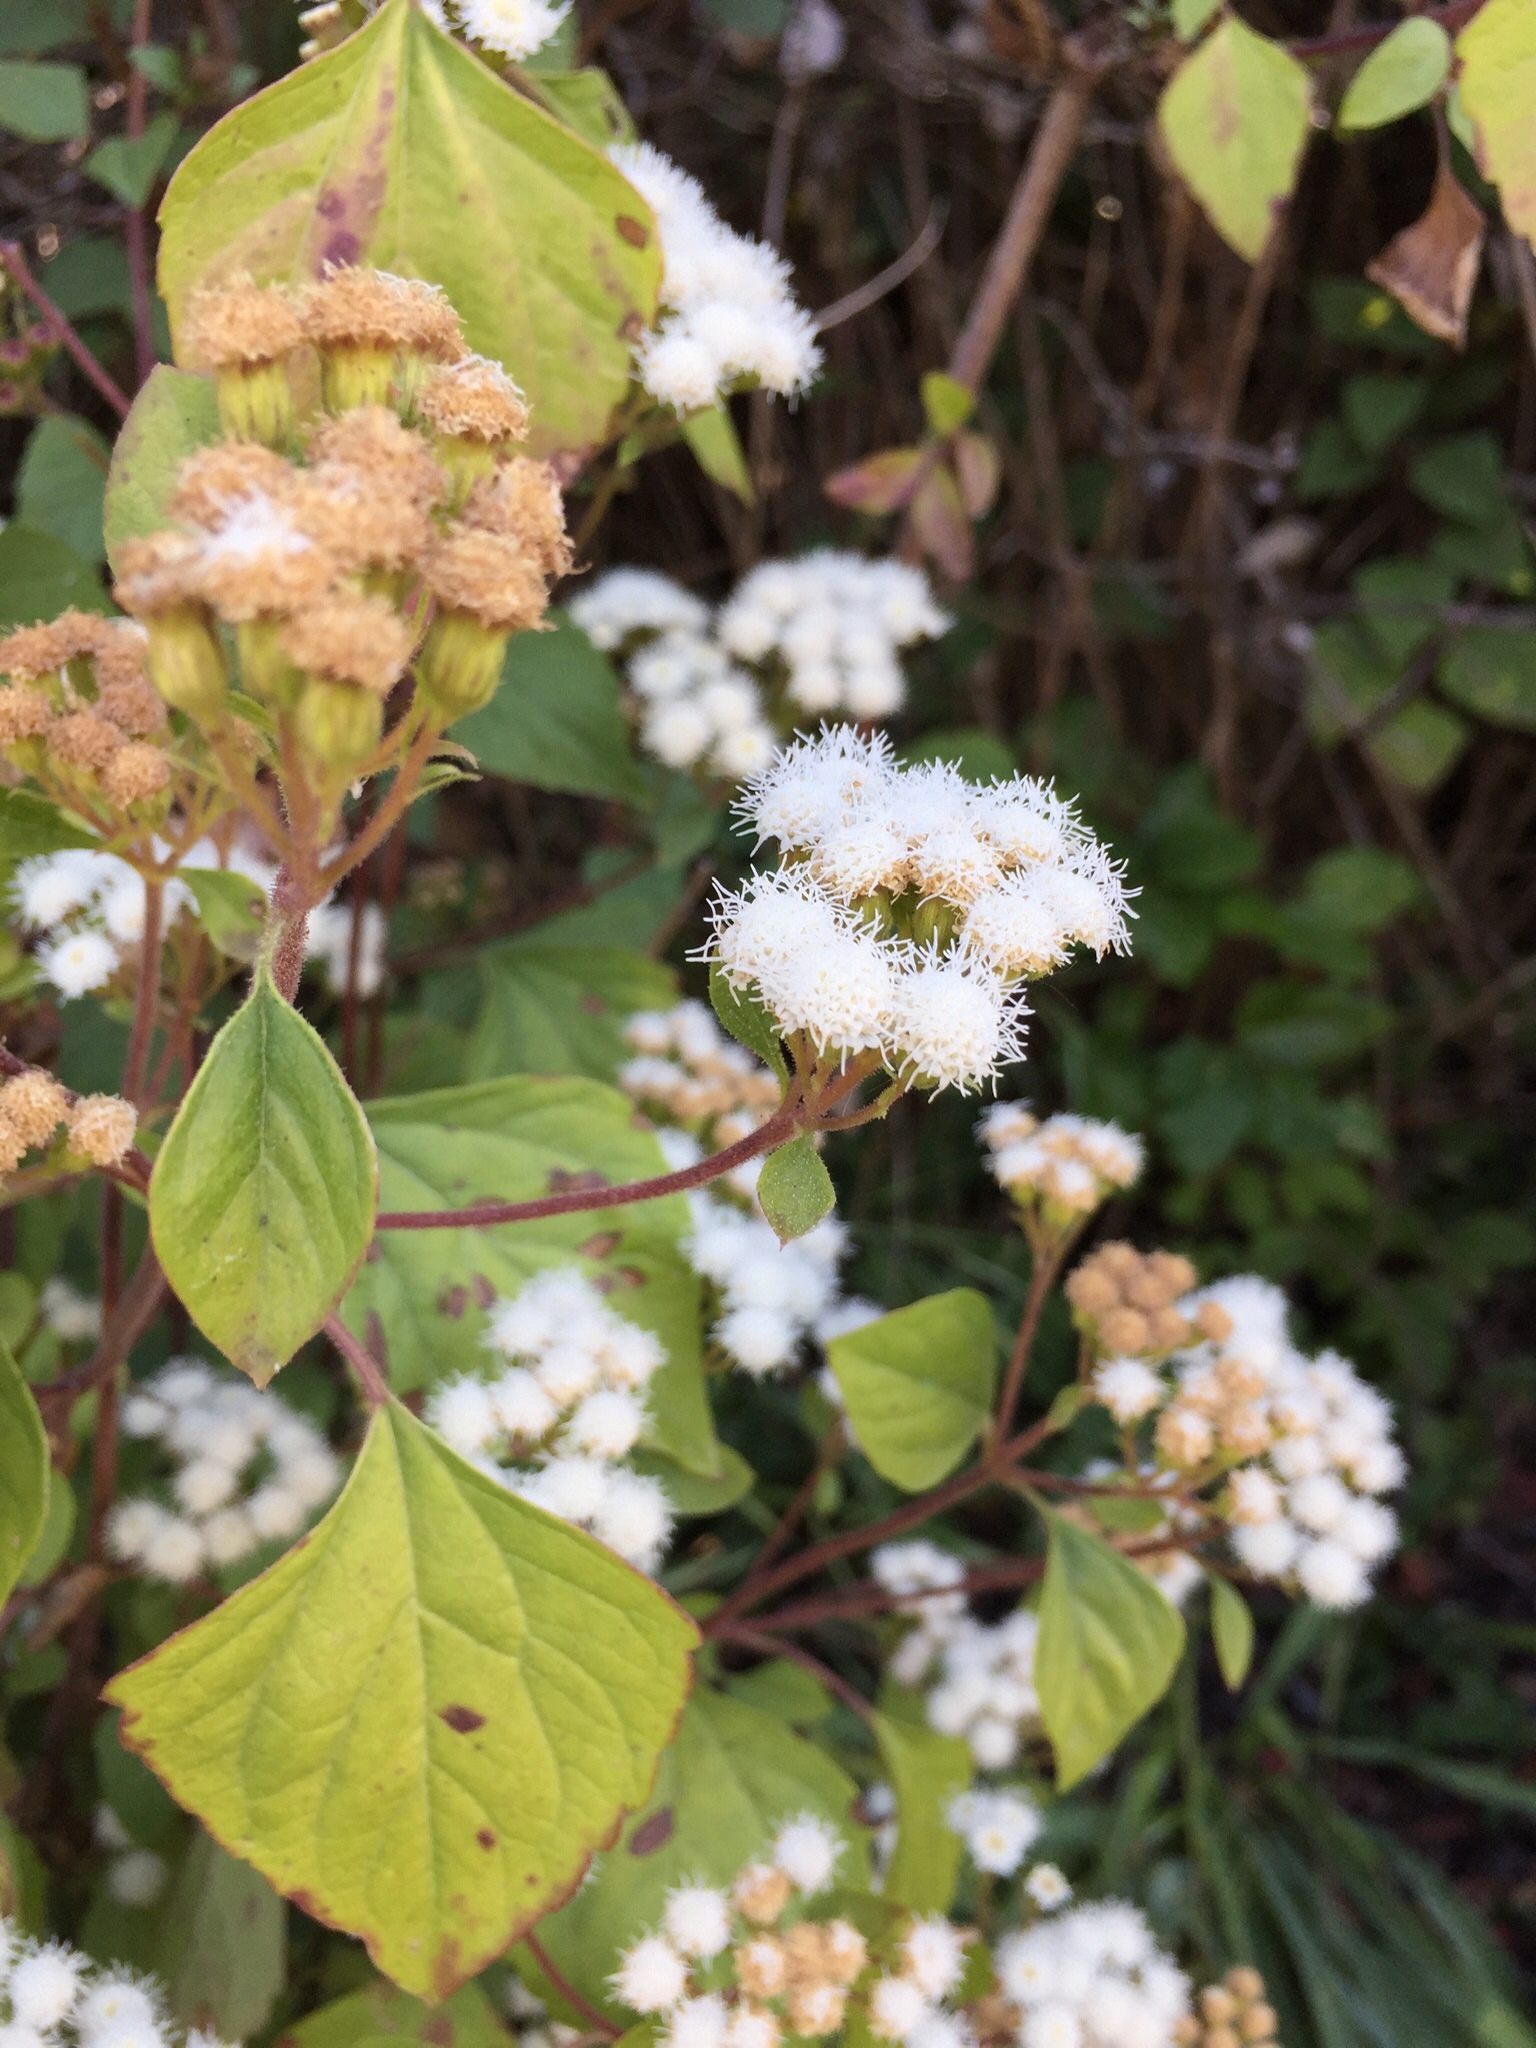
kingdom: Plantae
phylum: Tracheophyta
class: Magnoliopsida
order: Asterales
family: Asteraceae
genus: Ageratina
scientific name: Ageratina adenophora
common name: Sticky snakeroot
